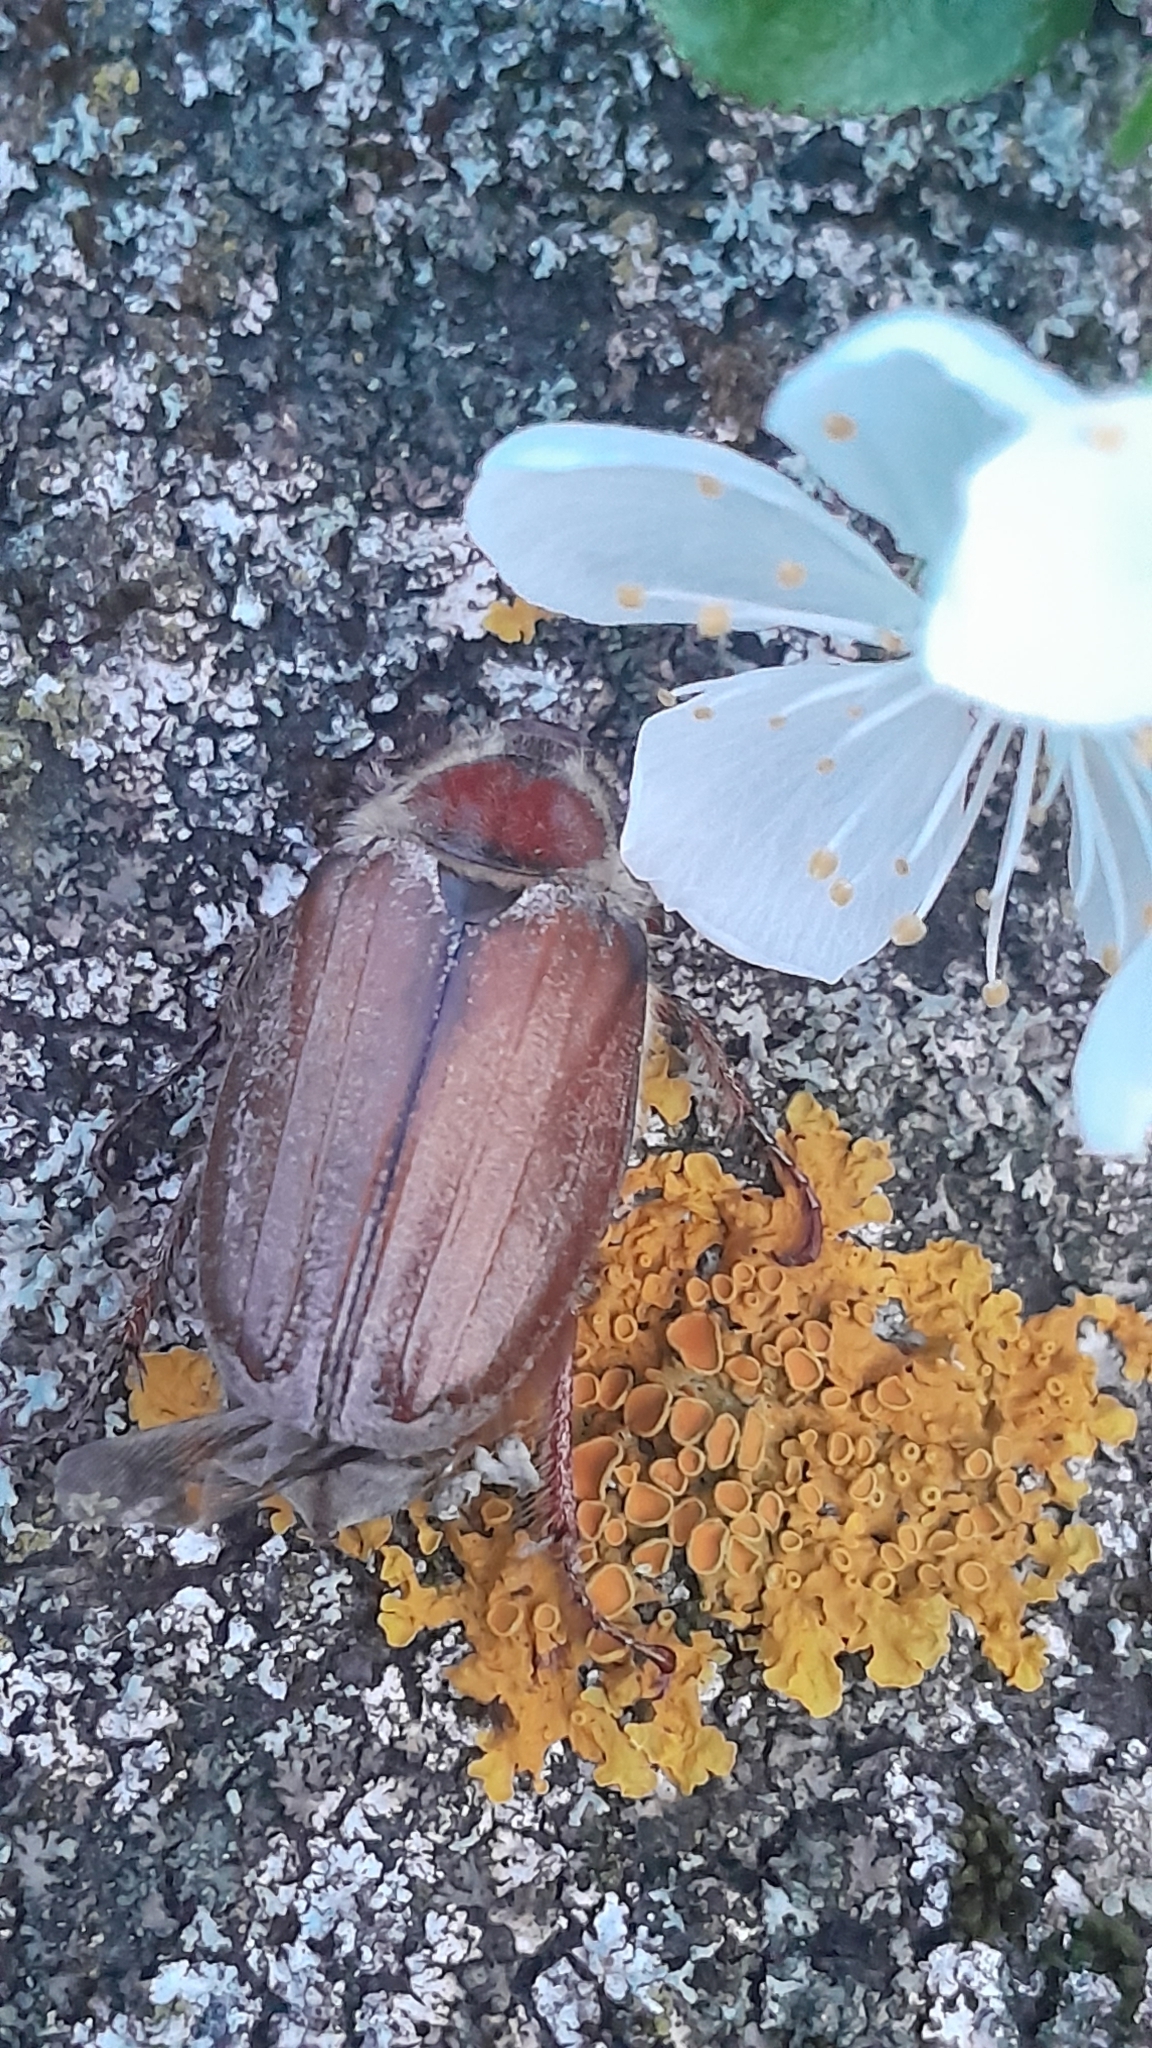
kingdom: Animalia
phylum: Arthropoda
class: Insecta
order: Coleoptera
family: Scarabaeidae
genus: Melolontha
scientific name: Melolontha melolontha
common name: Cockchafer maybeetle
